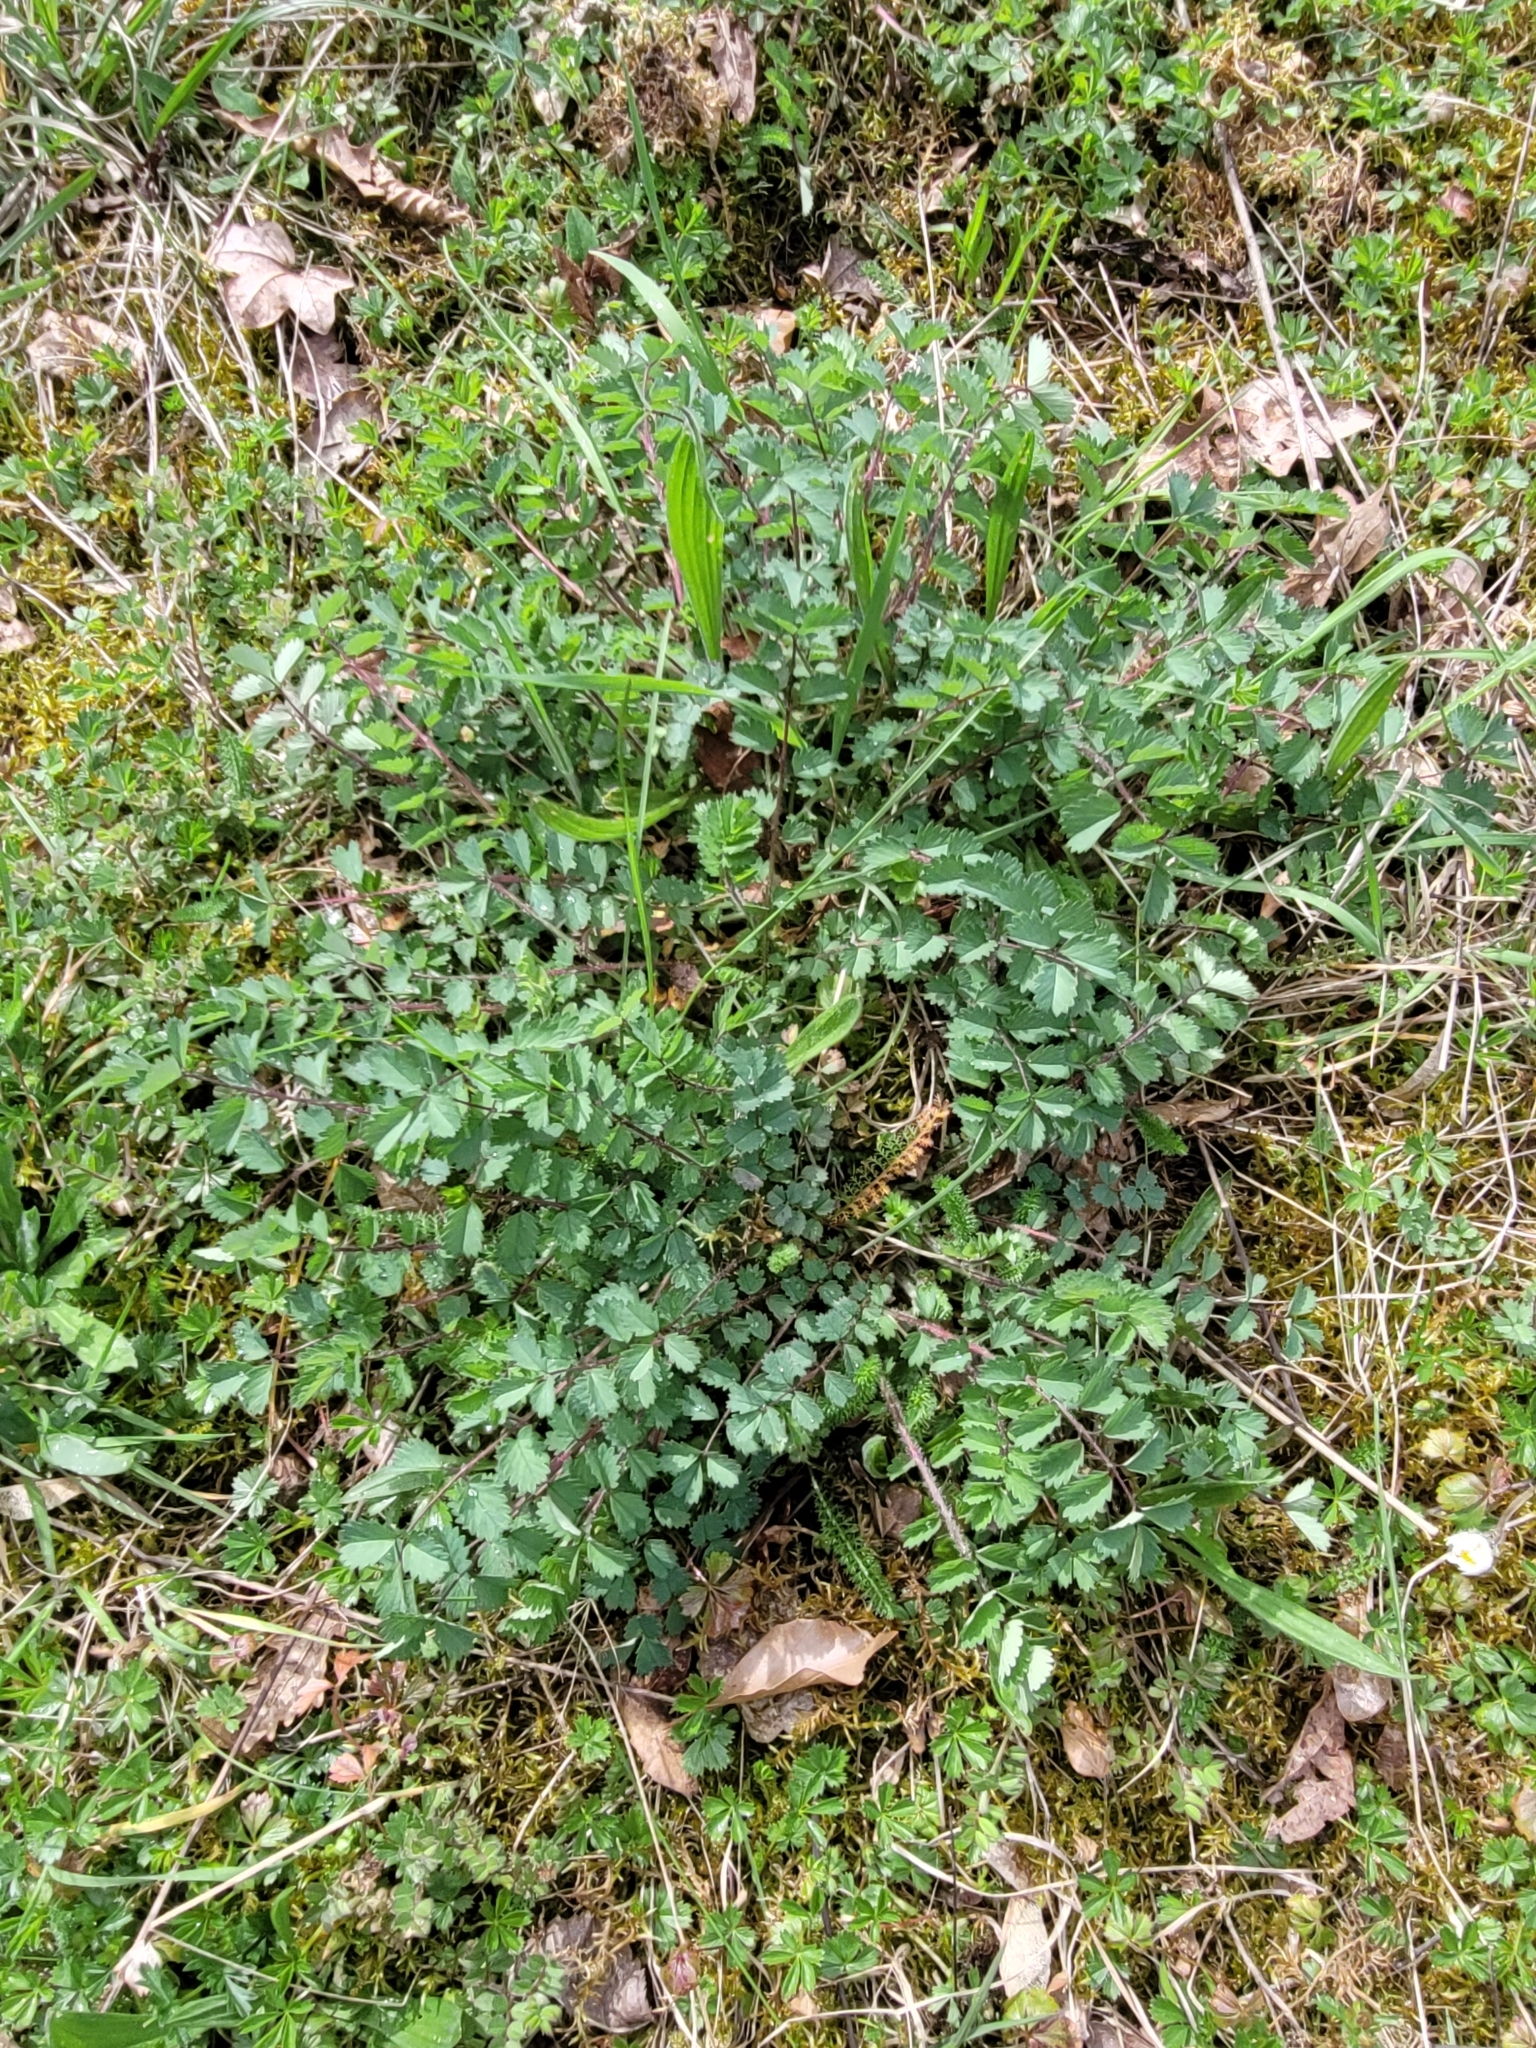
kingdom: Plantae
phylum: Tracheophyta
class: Magnoliopsida
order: Rosales
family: Rosaceae
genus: Poterium
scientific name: Poterium sanguisorba
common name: Salad burnet
